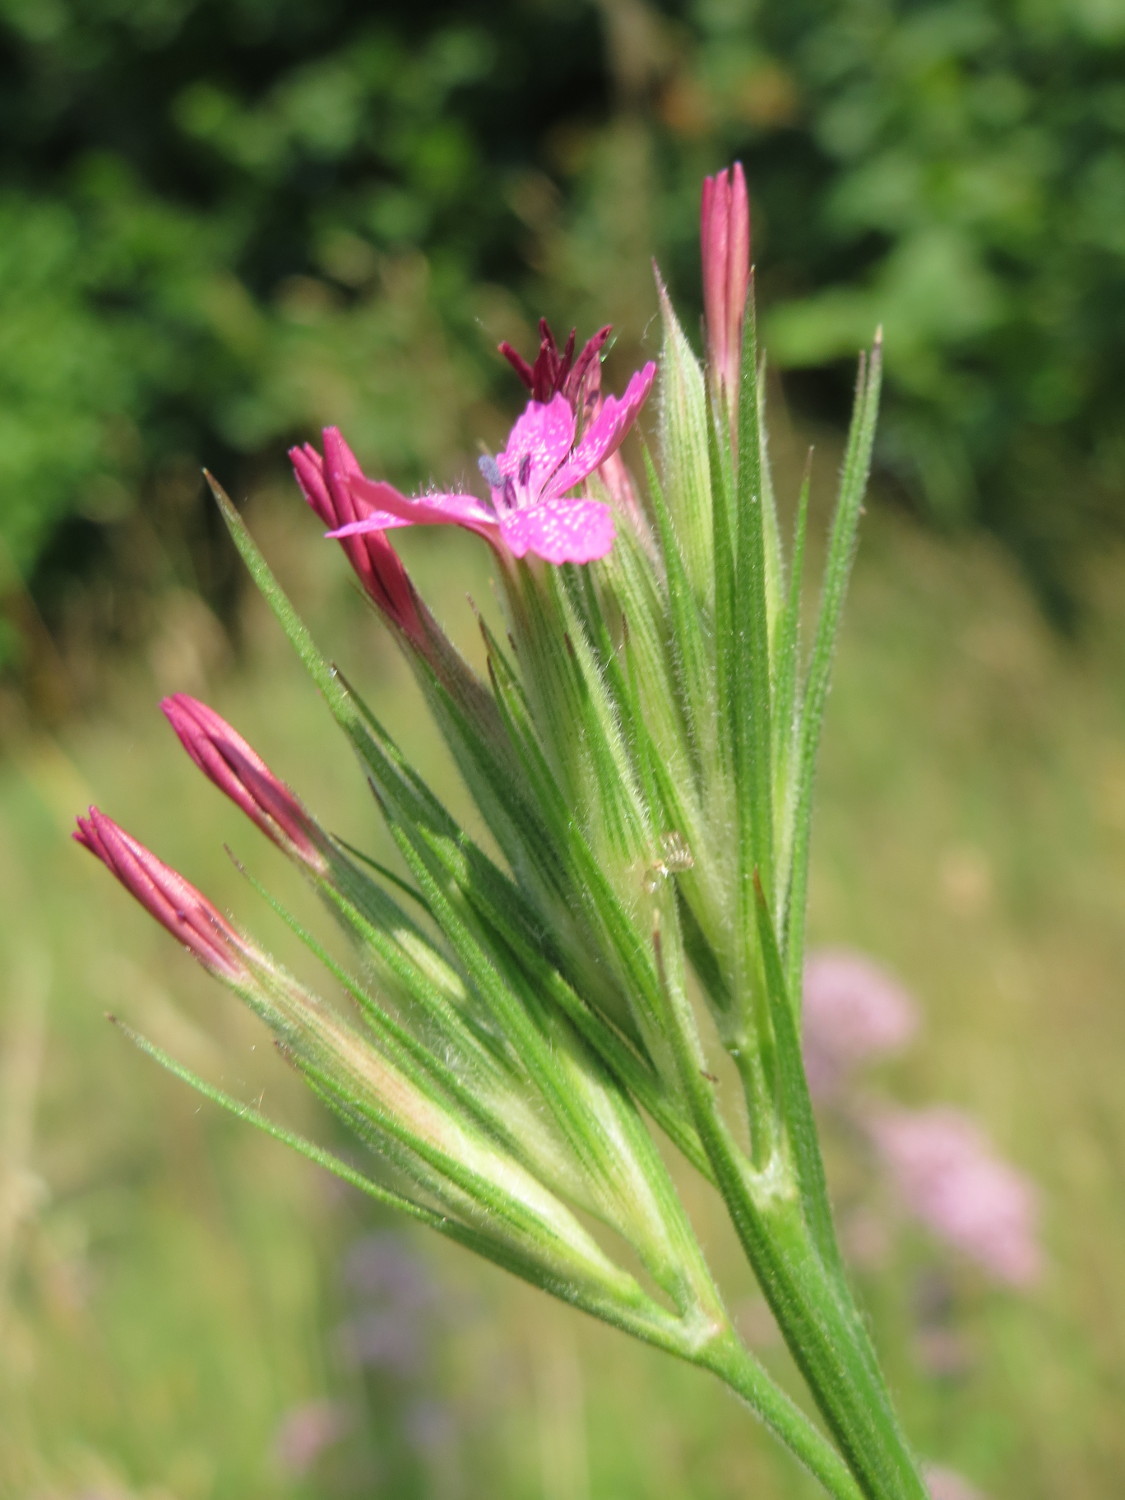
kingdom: Plantae
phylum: Tracheophyta
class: Magnoliopsida
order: Caryophyllales
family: Caryophyllaceae
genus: Dianthus
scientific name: Dianthus armeria
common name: Deptford pink
